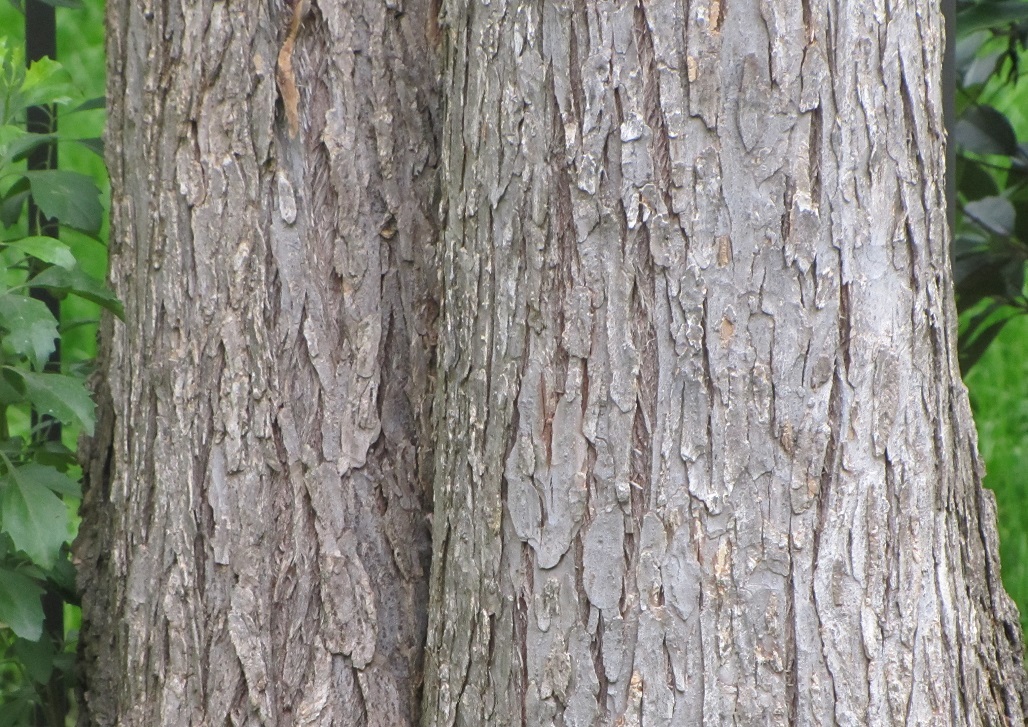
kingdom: Plantae
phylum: Tracheophyta
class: Magnoliopsida
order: Rosales
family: Ulmaceae
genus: Ulmus
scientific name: Ulmus alata
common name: Winged elm
